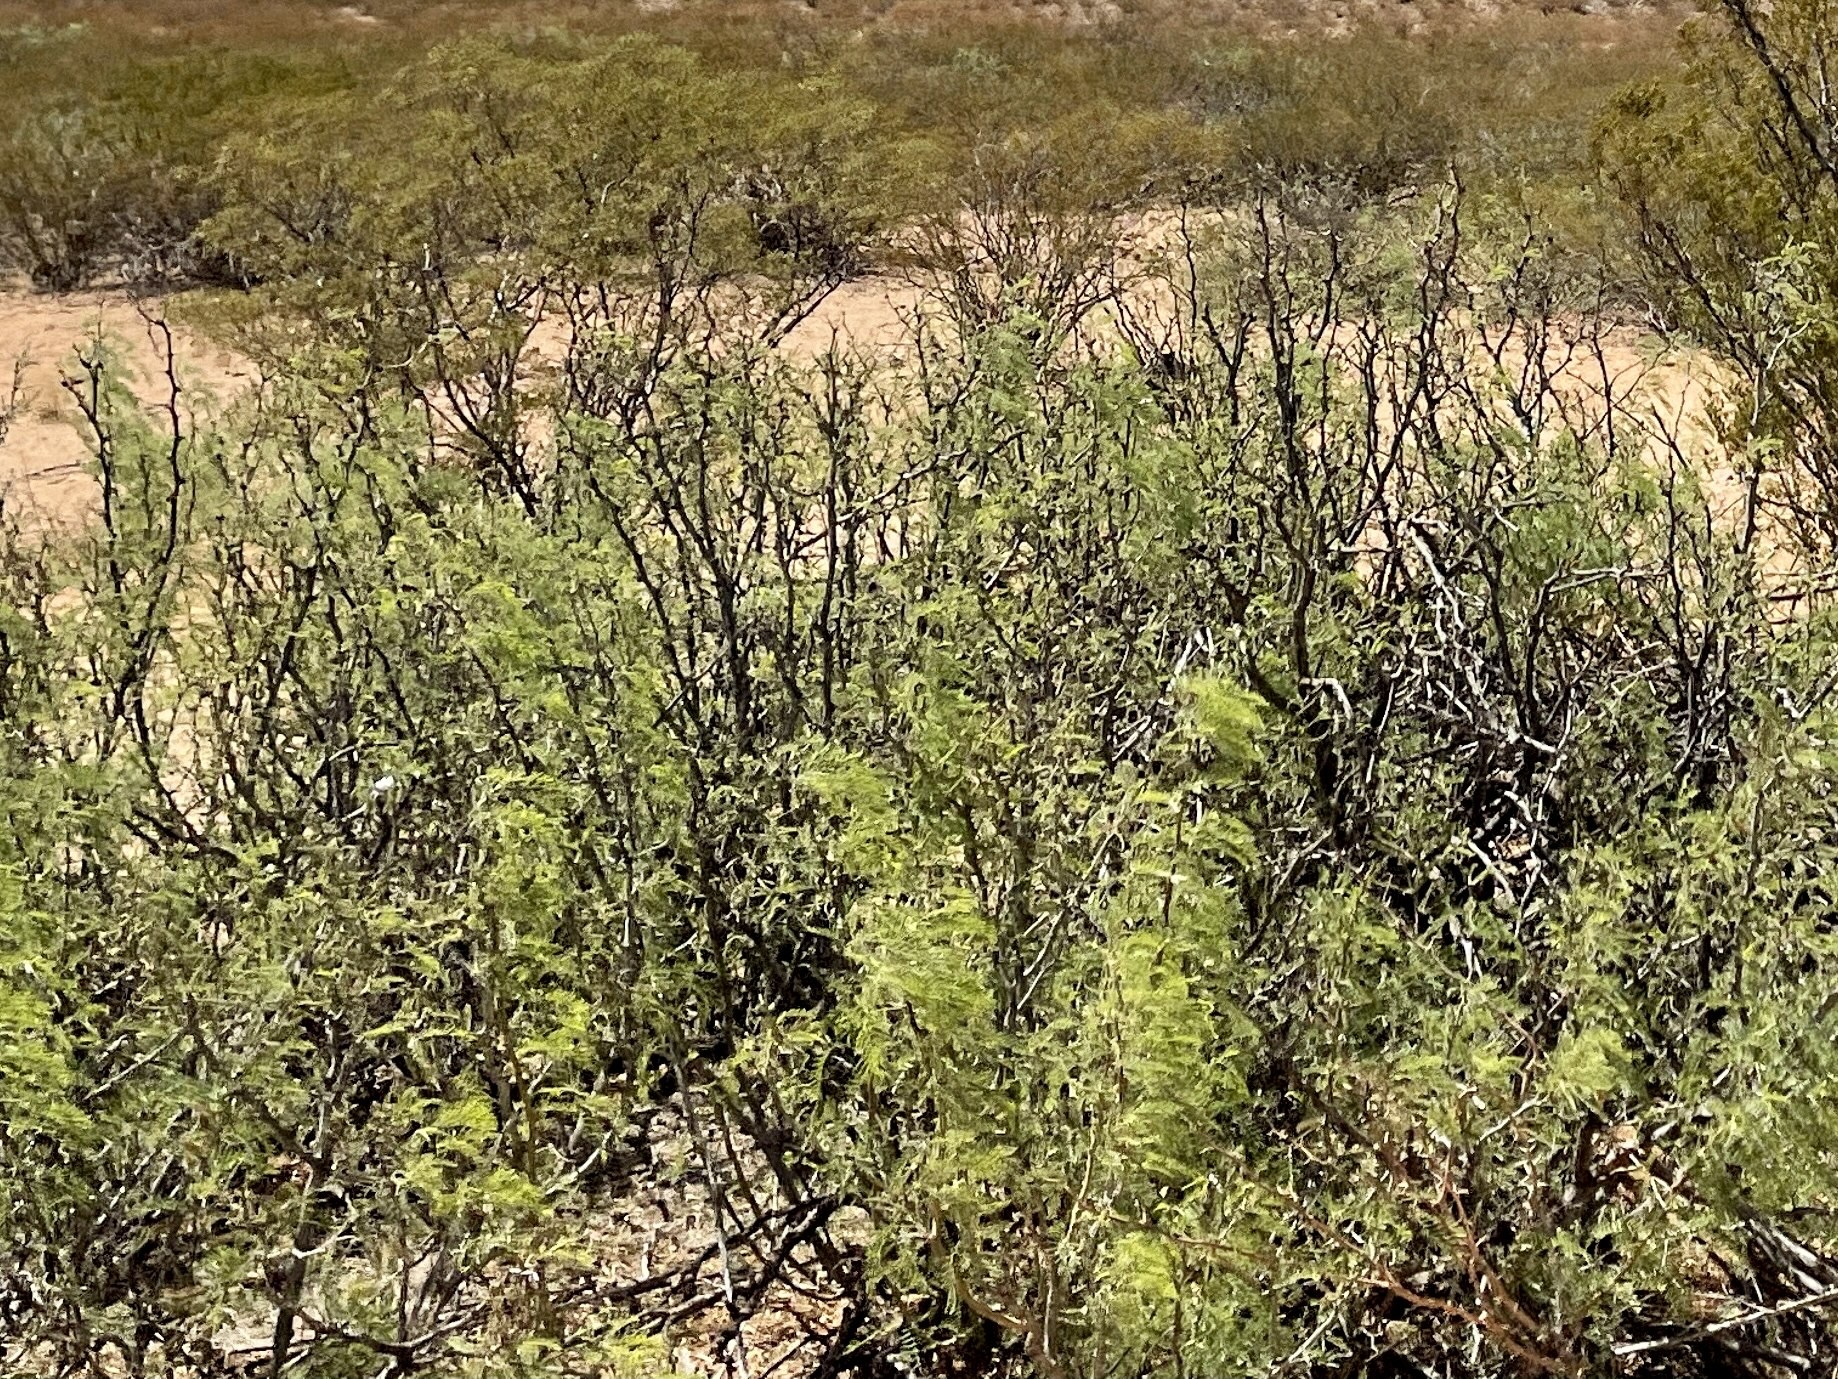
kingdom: Plantae
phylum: Tracheophyta
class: Magnoliopsida
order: Fabales
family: Fabaceae
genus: Prosopis
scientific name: Prosopis glandulosa
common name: Honey mesquite
